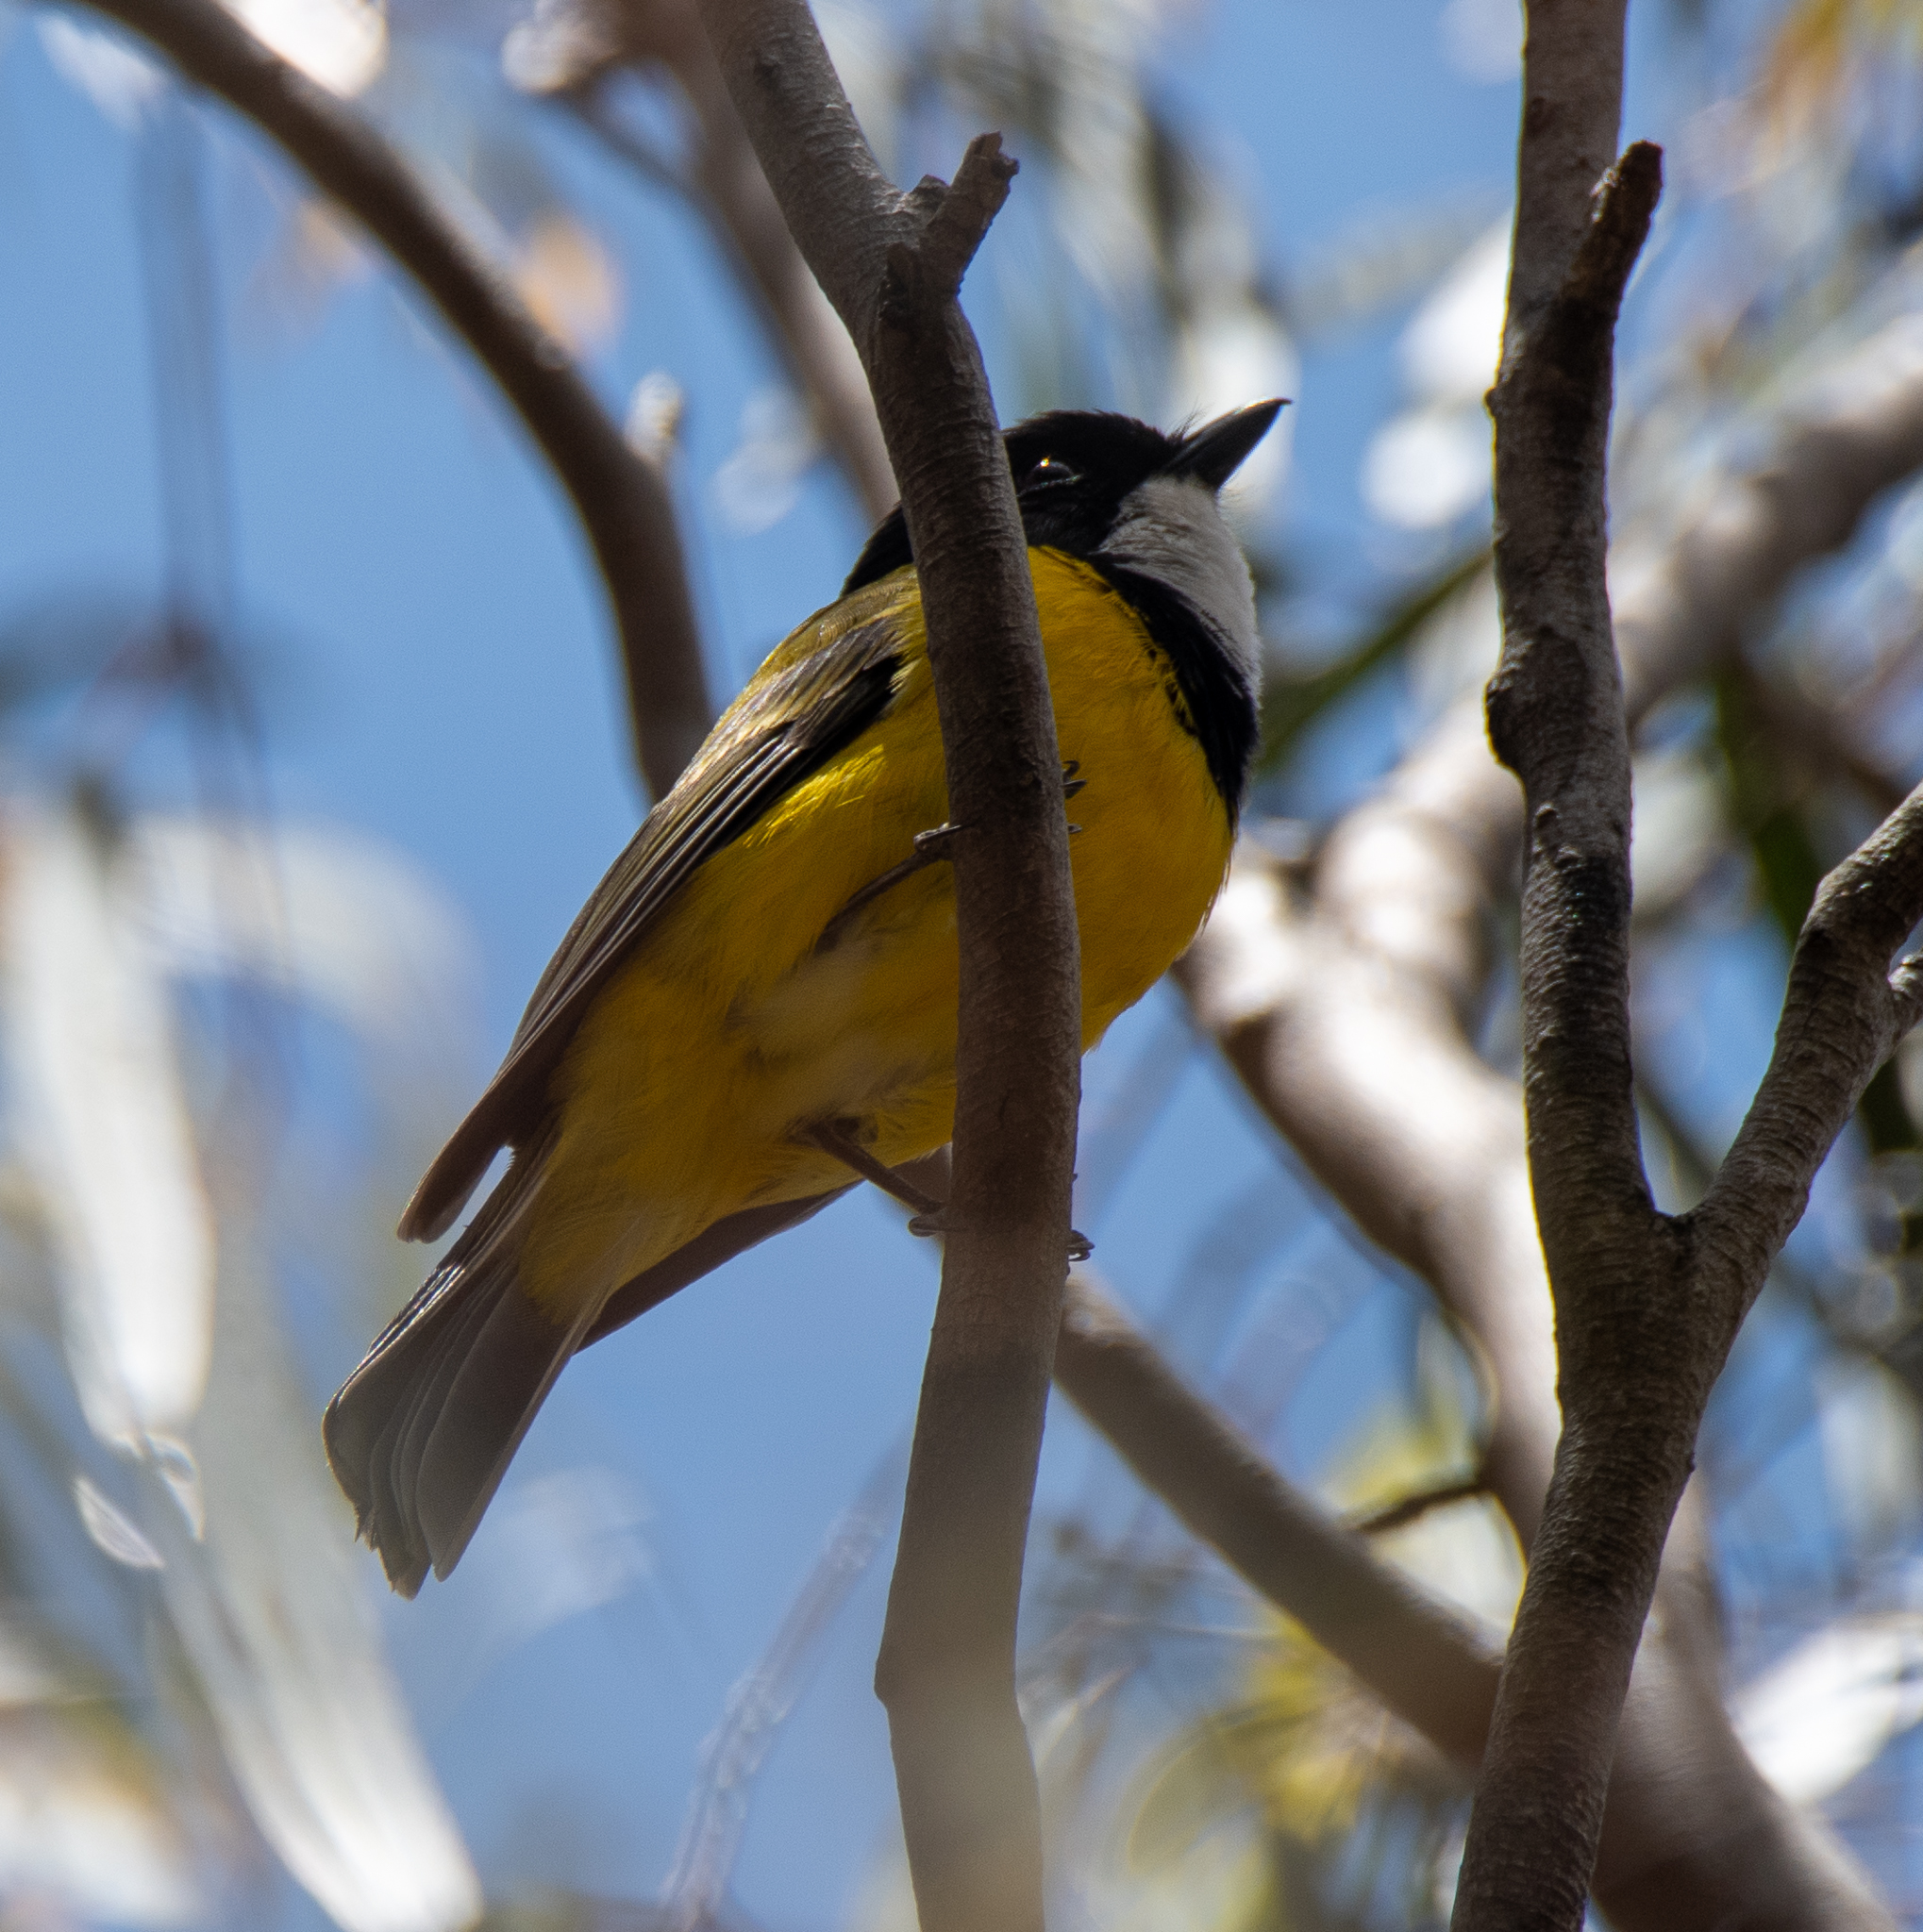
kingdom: Animalia
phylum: Chordata
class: Aves
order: Passeriformes
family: Pachycephalidae
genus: Pachycephala
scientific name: Pachycephala pectoralis
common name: Australian golden whistler
